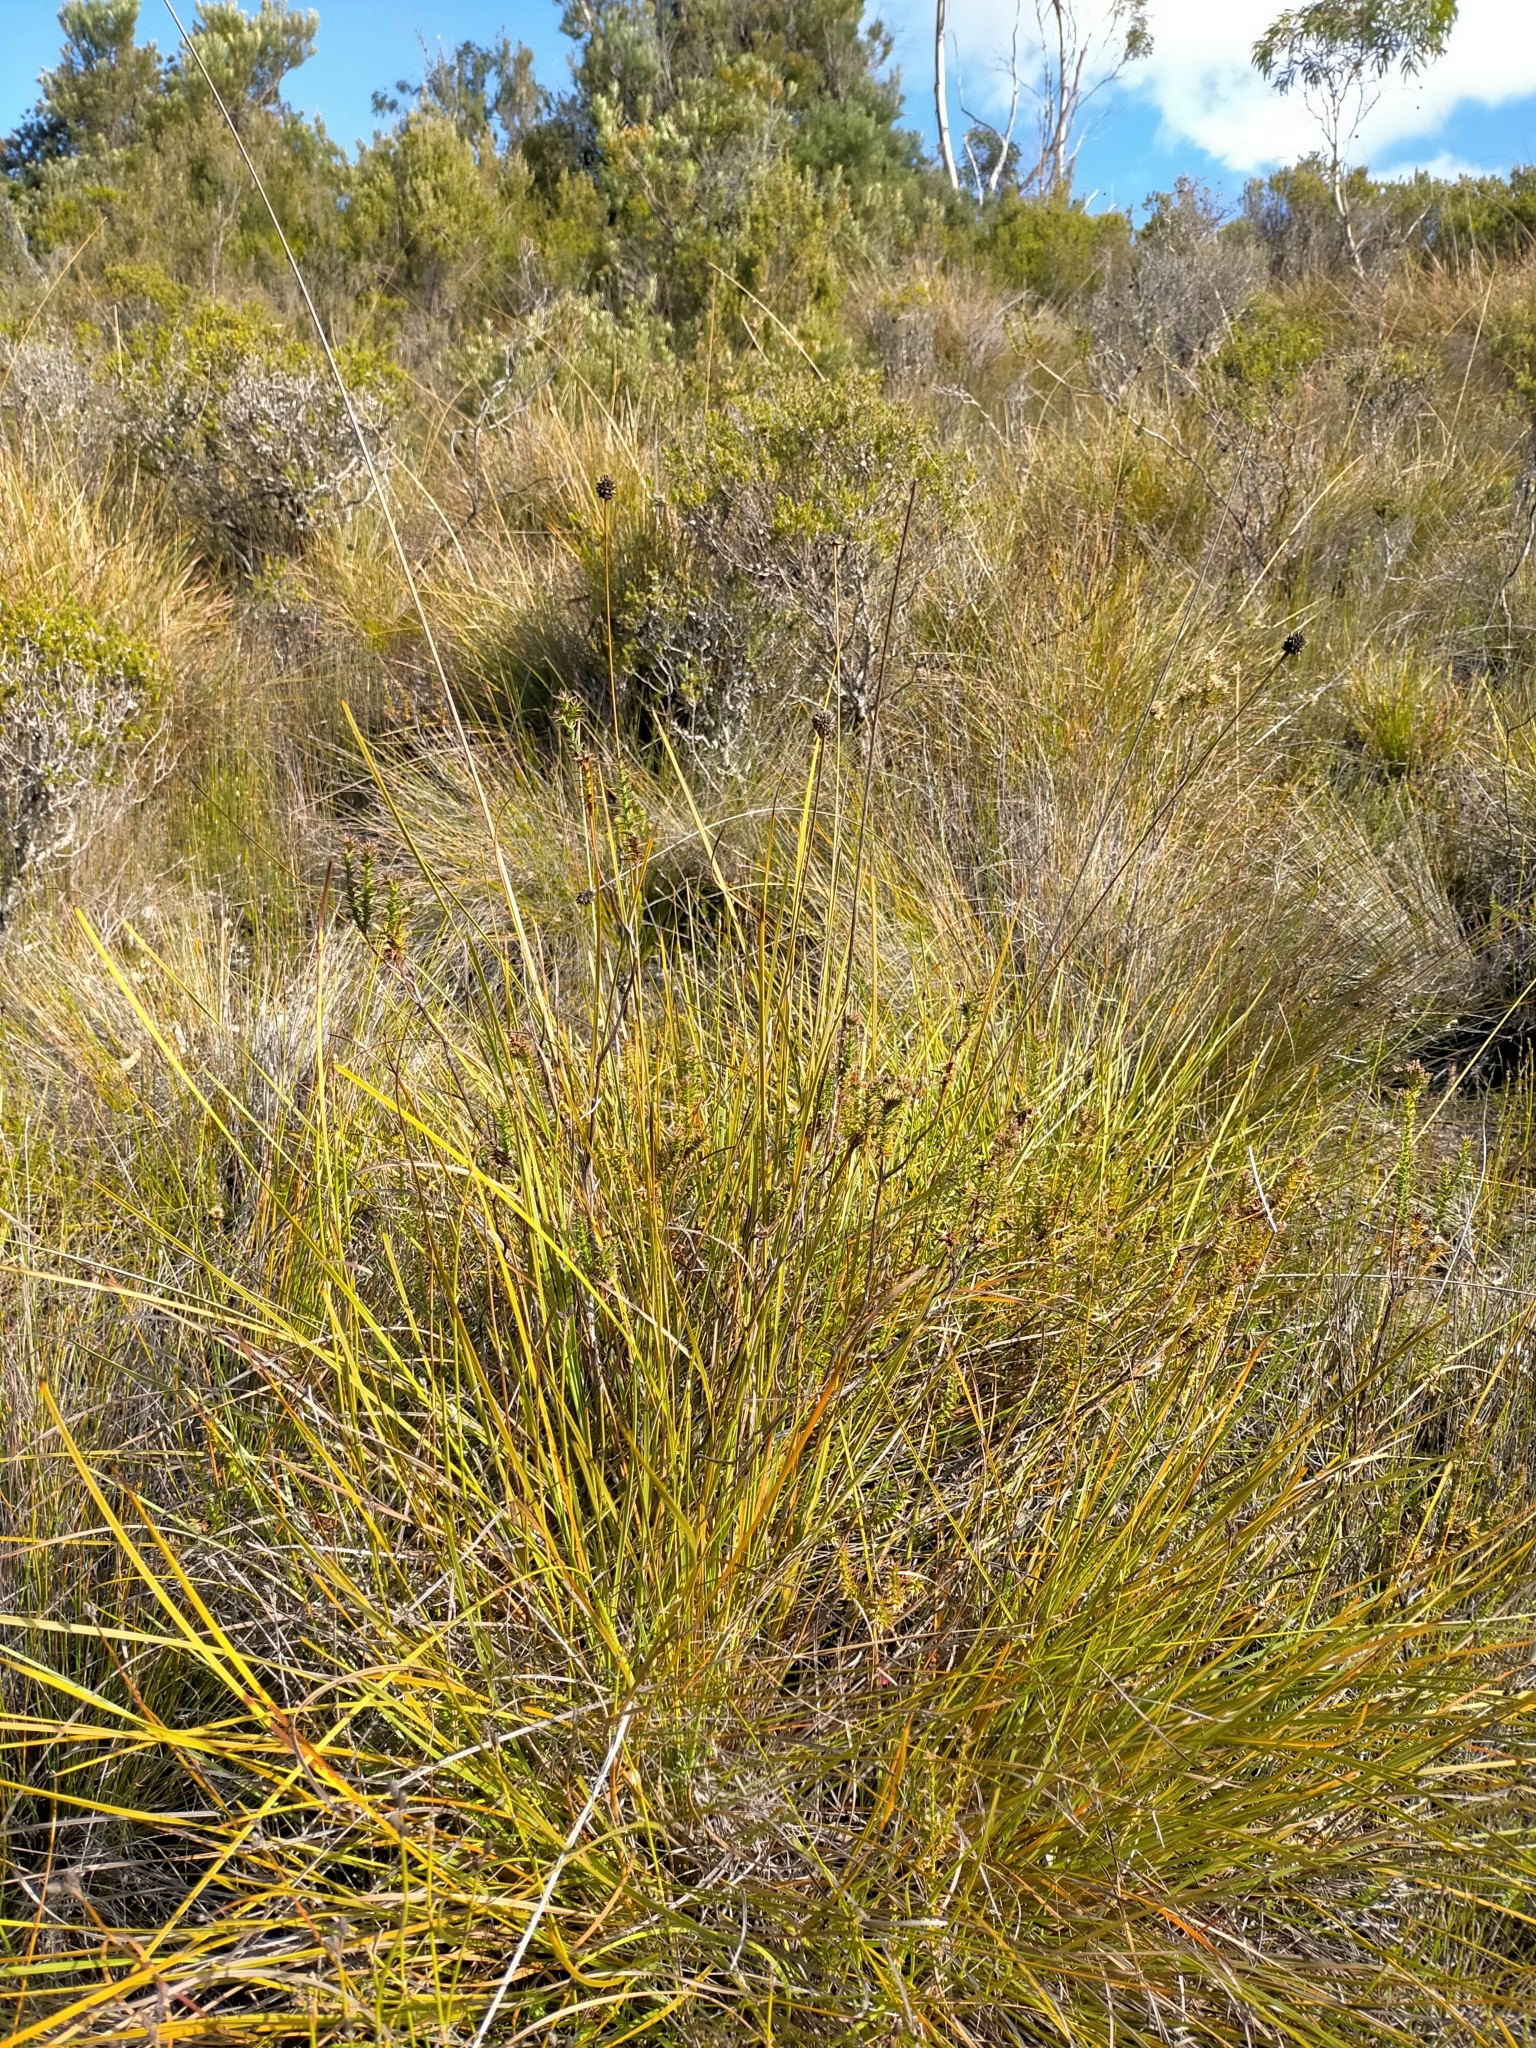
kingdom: Plantae
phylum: Tracheophyta
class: Liliopsida
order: Poales
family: Cyperaceae
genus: Gymnoschoenus
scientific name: Gymnoschoenus sphaerocephalus
